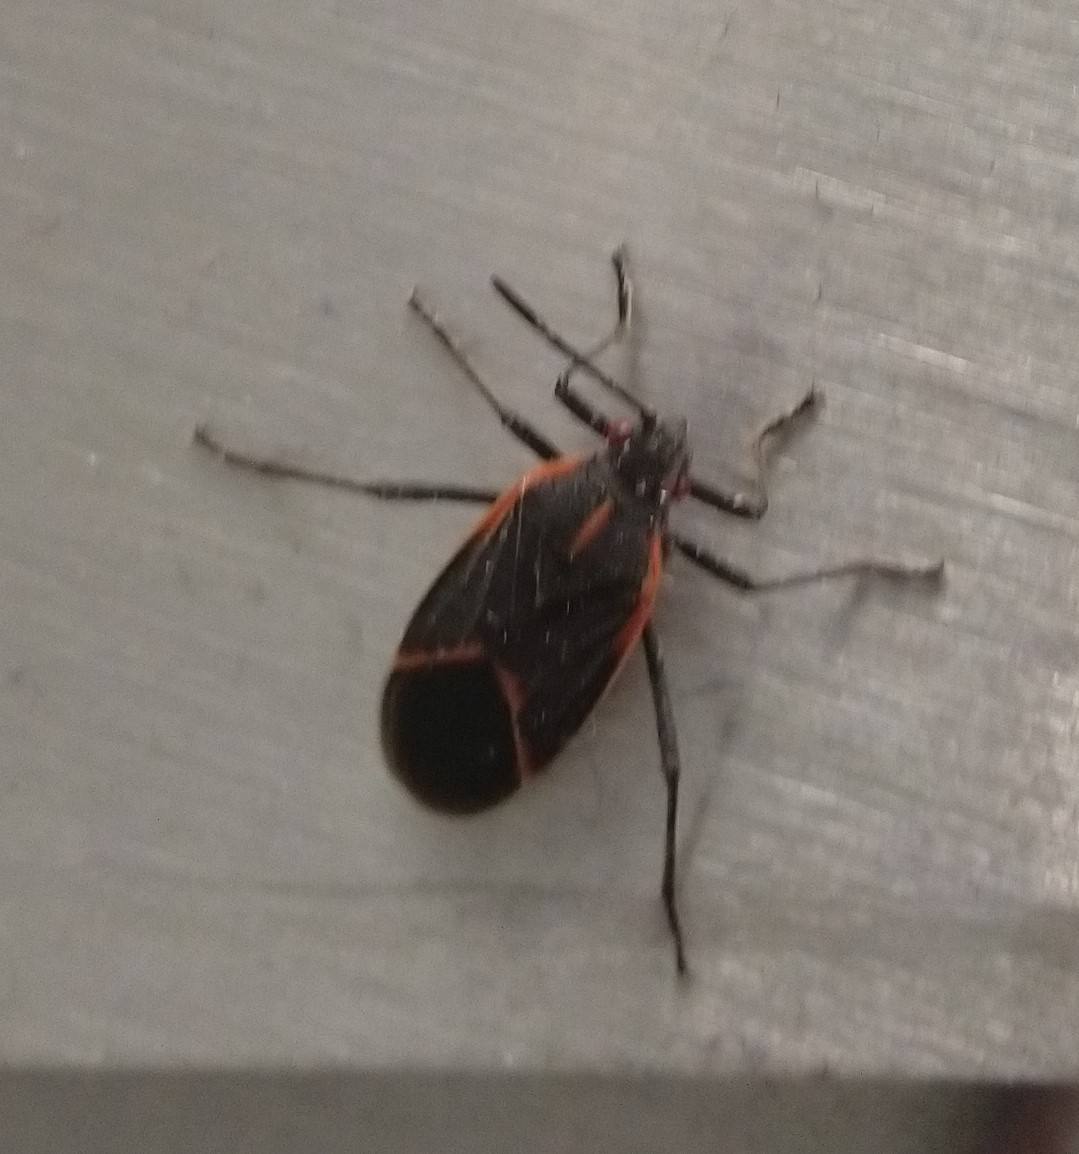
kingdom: Animalia
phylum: Arthropoda
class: Insecta
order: Hemiptera
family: Rhopalidae
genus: Boisea
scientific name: Boisea trivittata
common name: Boxelder bug
